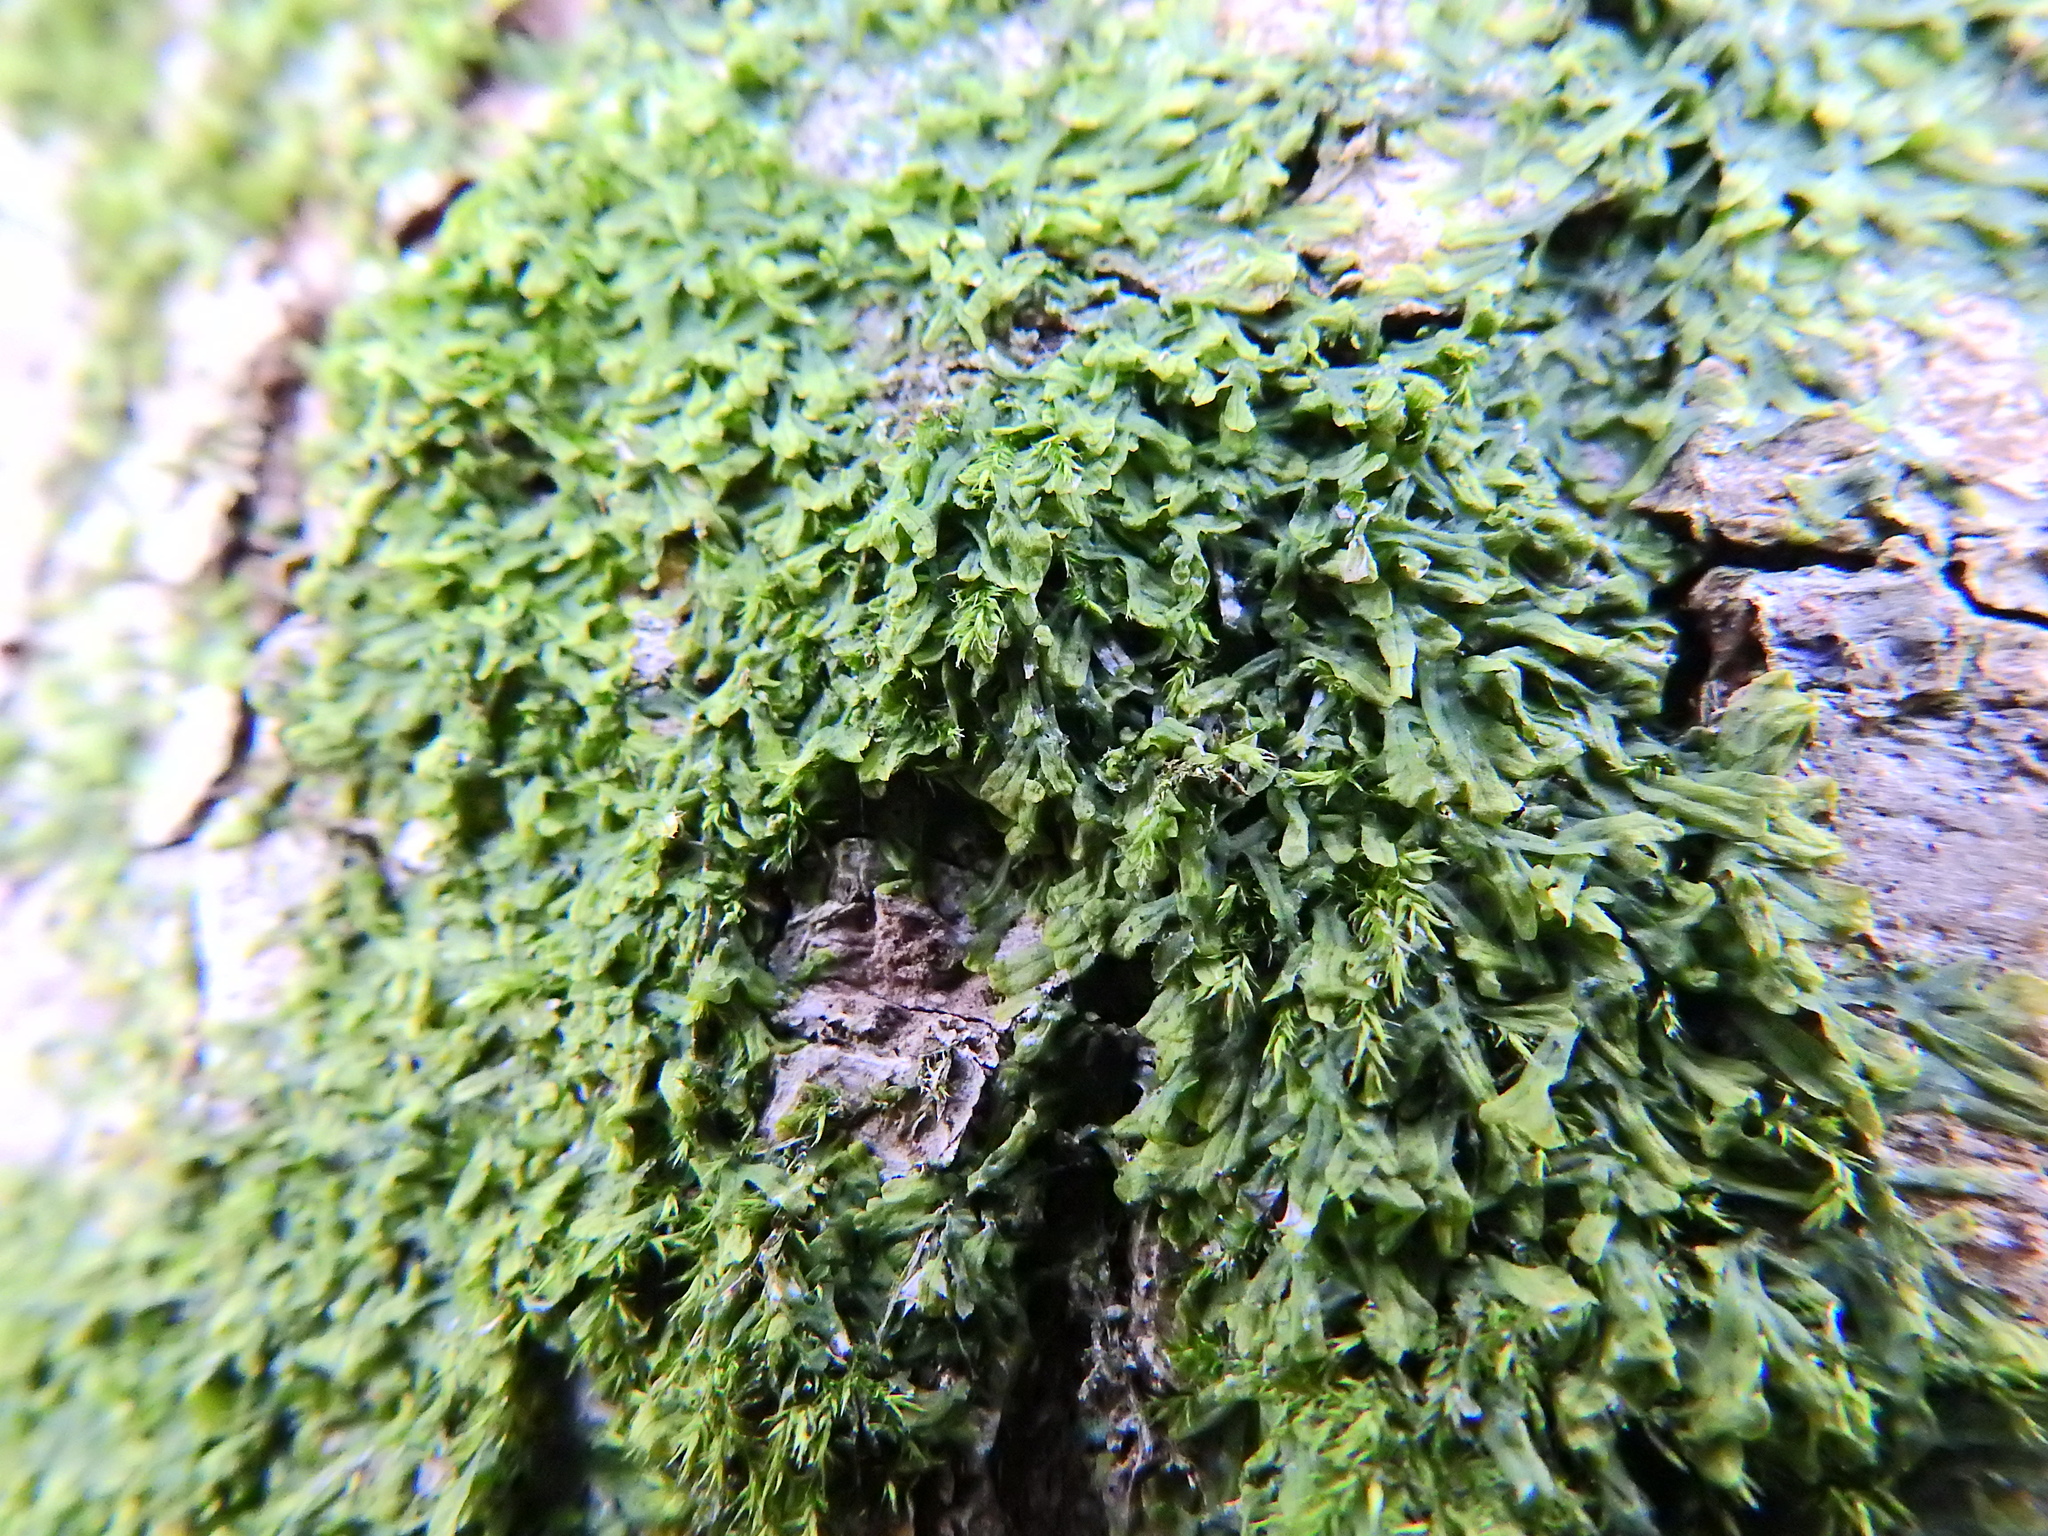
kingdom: Plantae
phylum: Marchantiophyta
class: Jungermanniopsida
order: Metzgeriales
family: Metzgeriaceae
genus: Metzgeria
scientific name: Metzgeria furcata
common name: Forked veilwort
